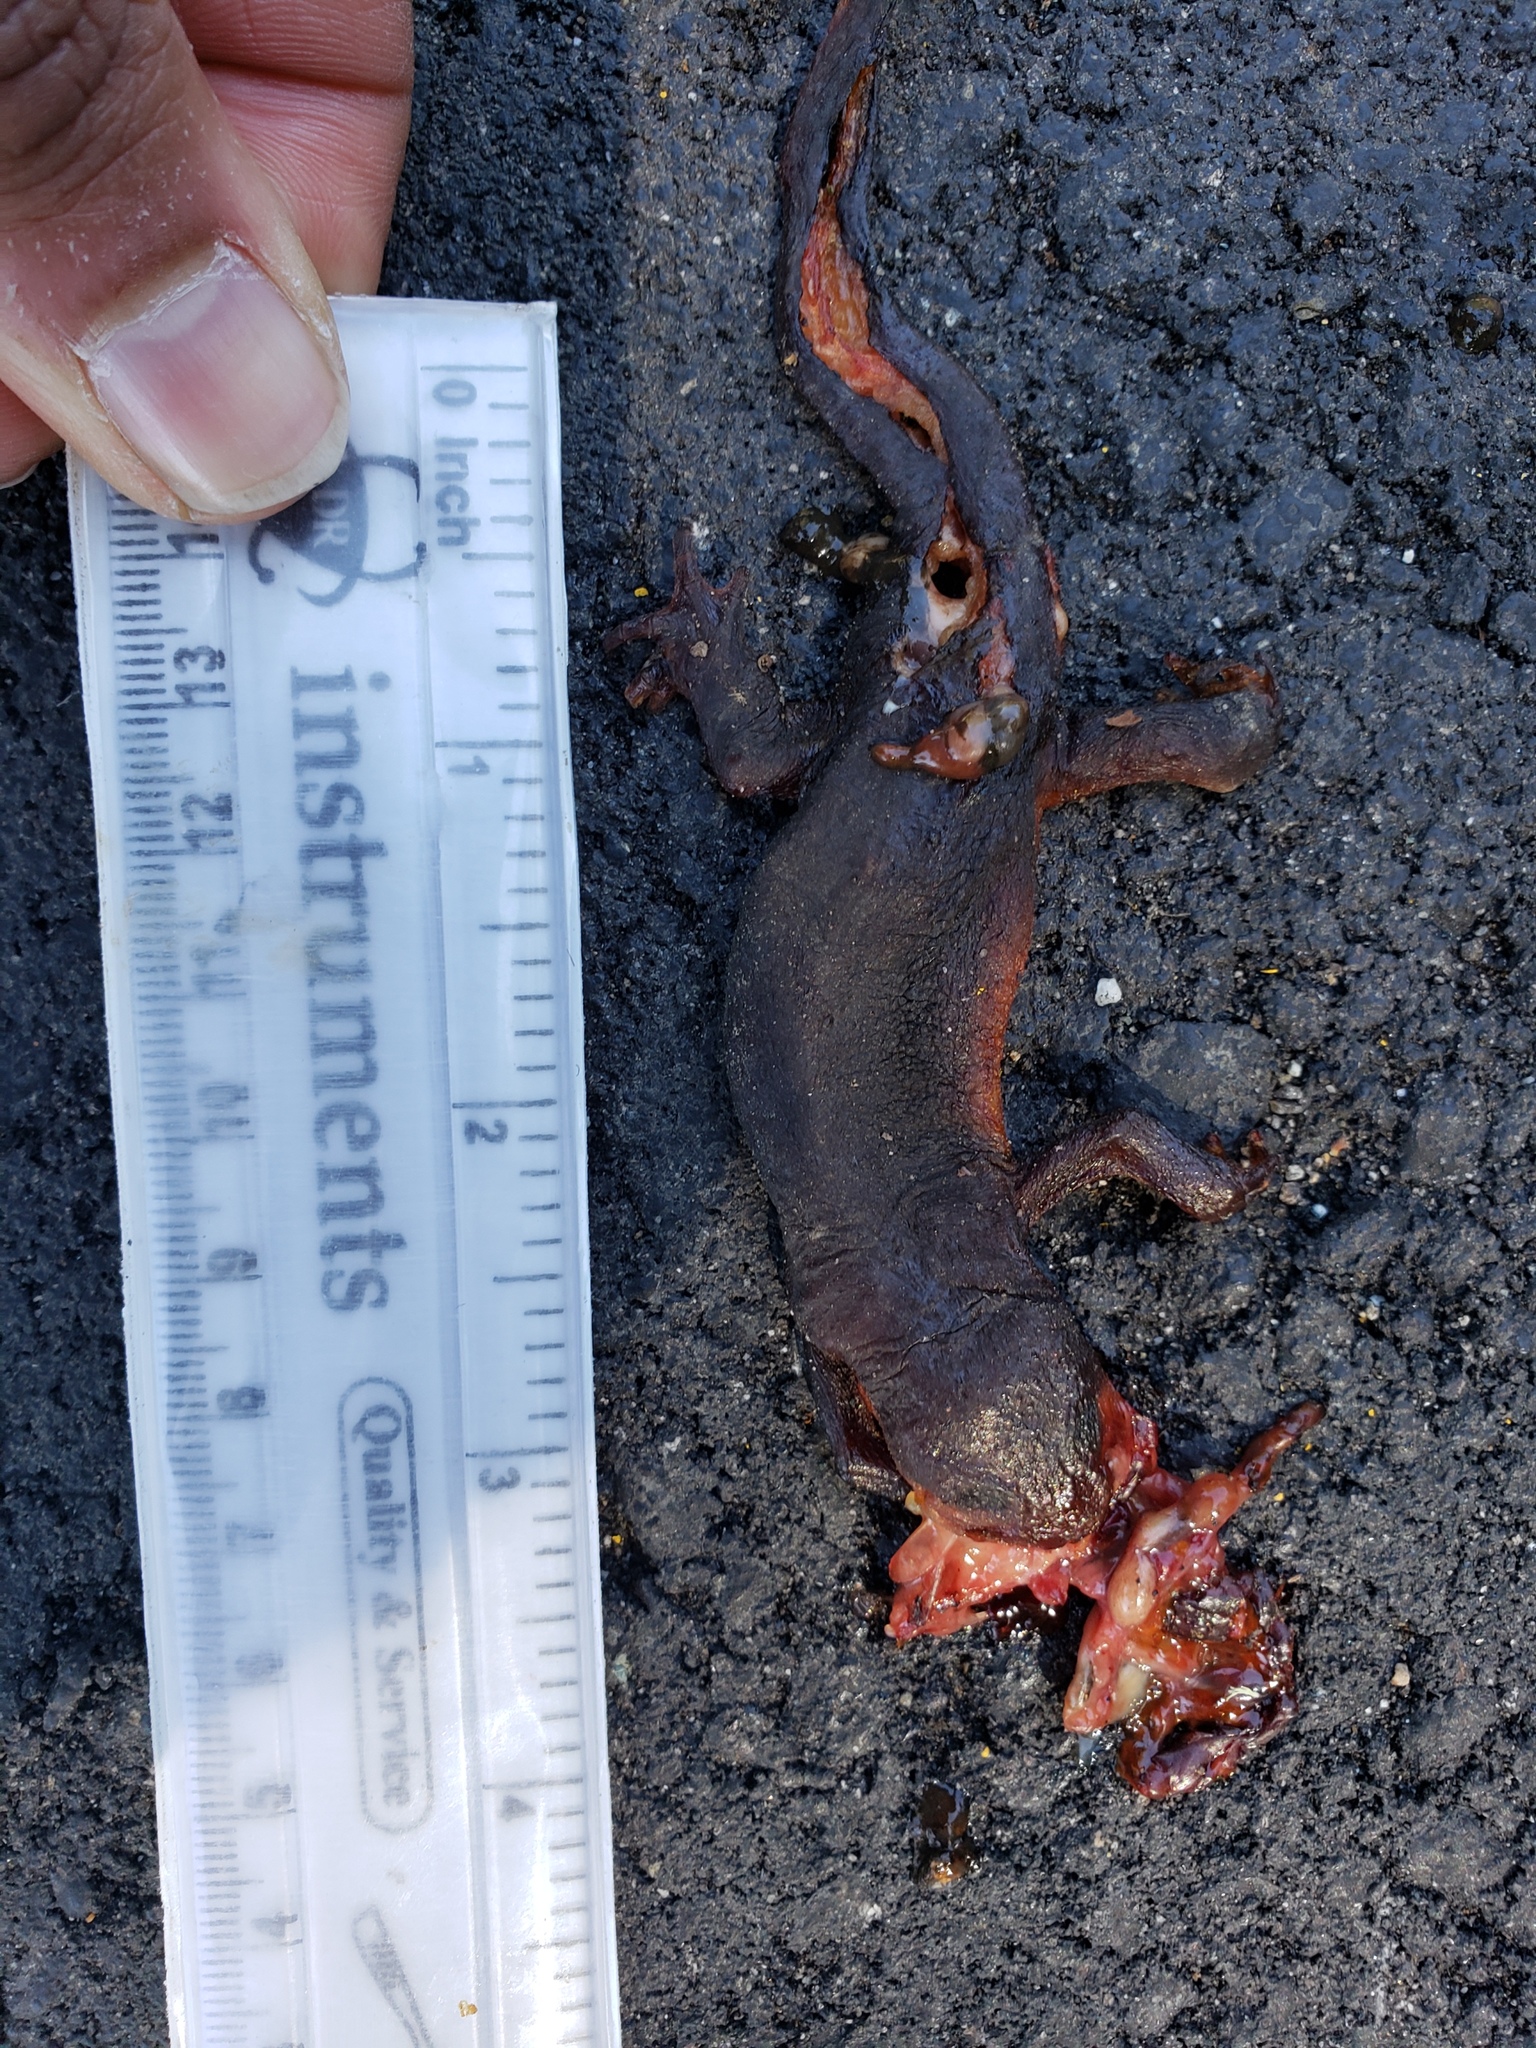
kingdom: Animalia
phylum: Chordata
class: Amphibia
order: Caudata
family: Salamandridae
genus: Taricha
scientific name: Taricha
